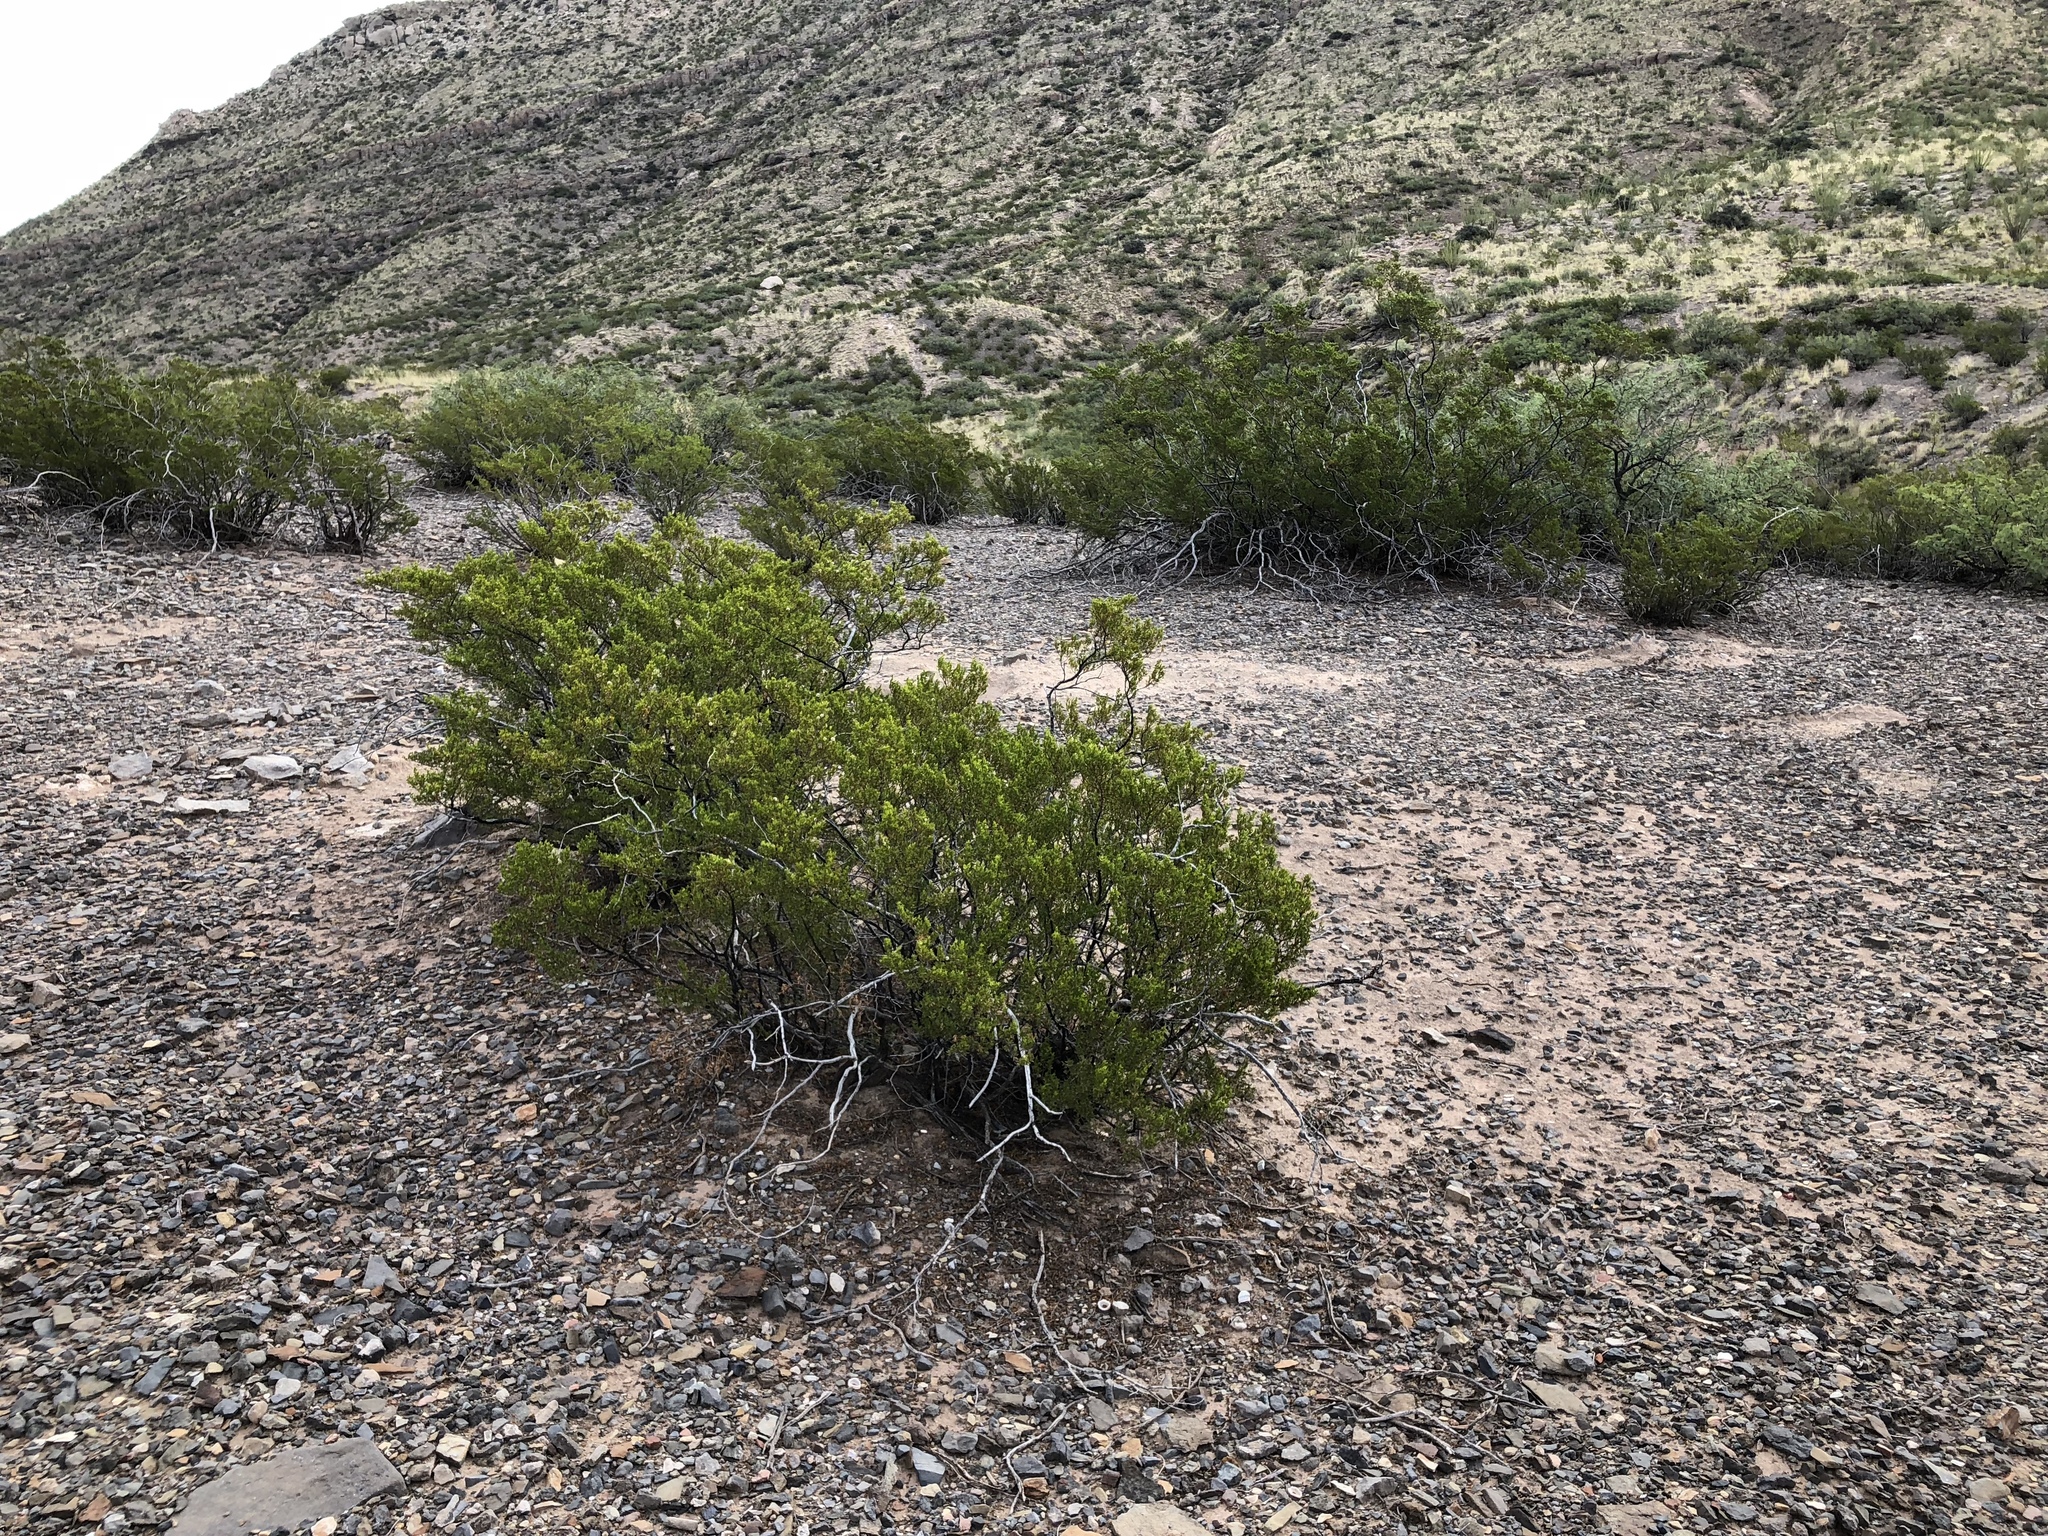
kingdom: Plantae
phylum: Tracheophyta
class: Magnoliopsida
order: Zygophyllales
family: Zygophyllaceae
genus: Larrea
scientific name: Larrea tridentata
